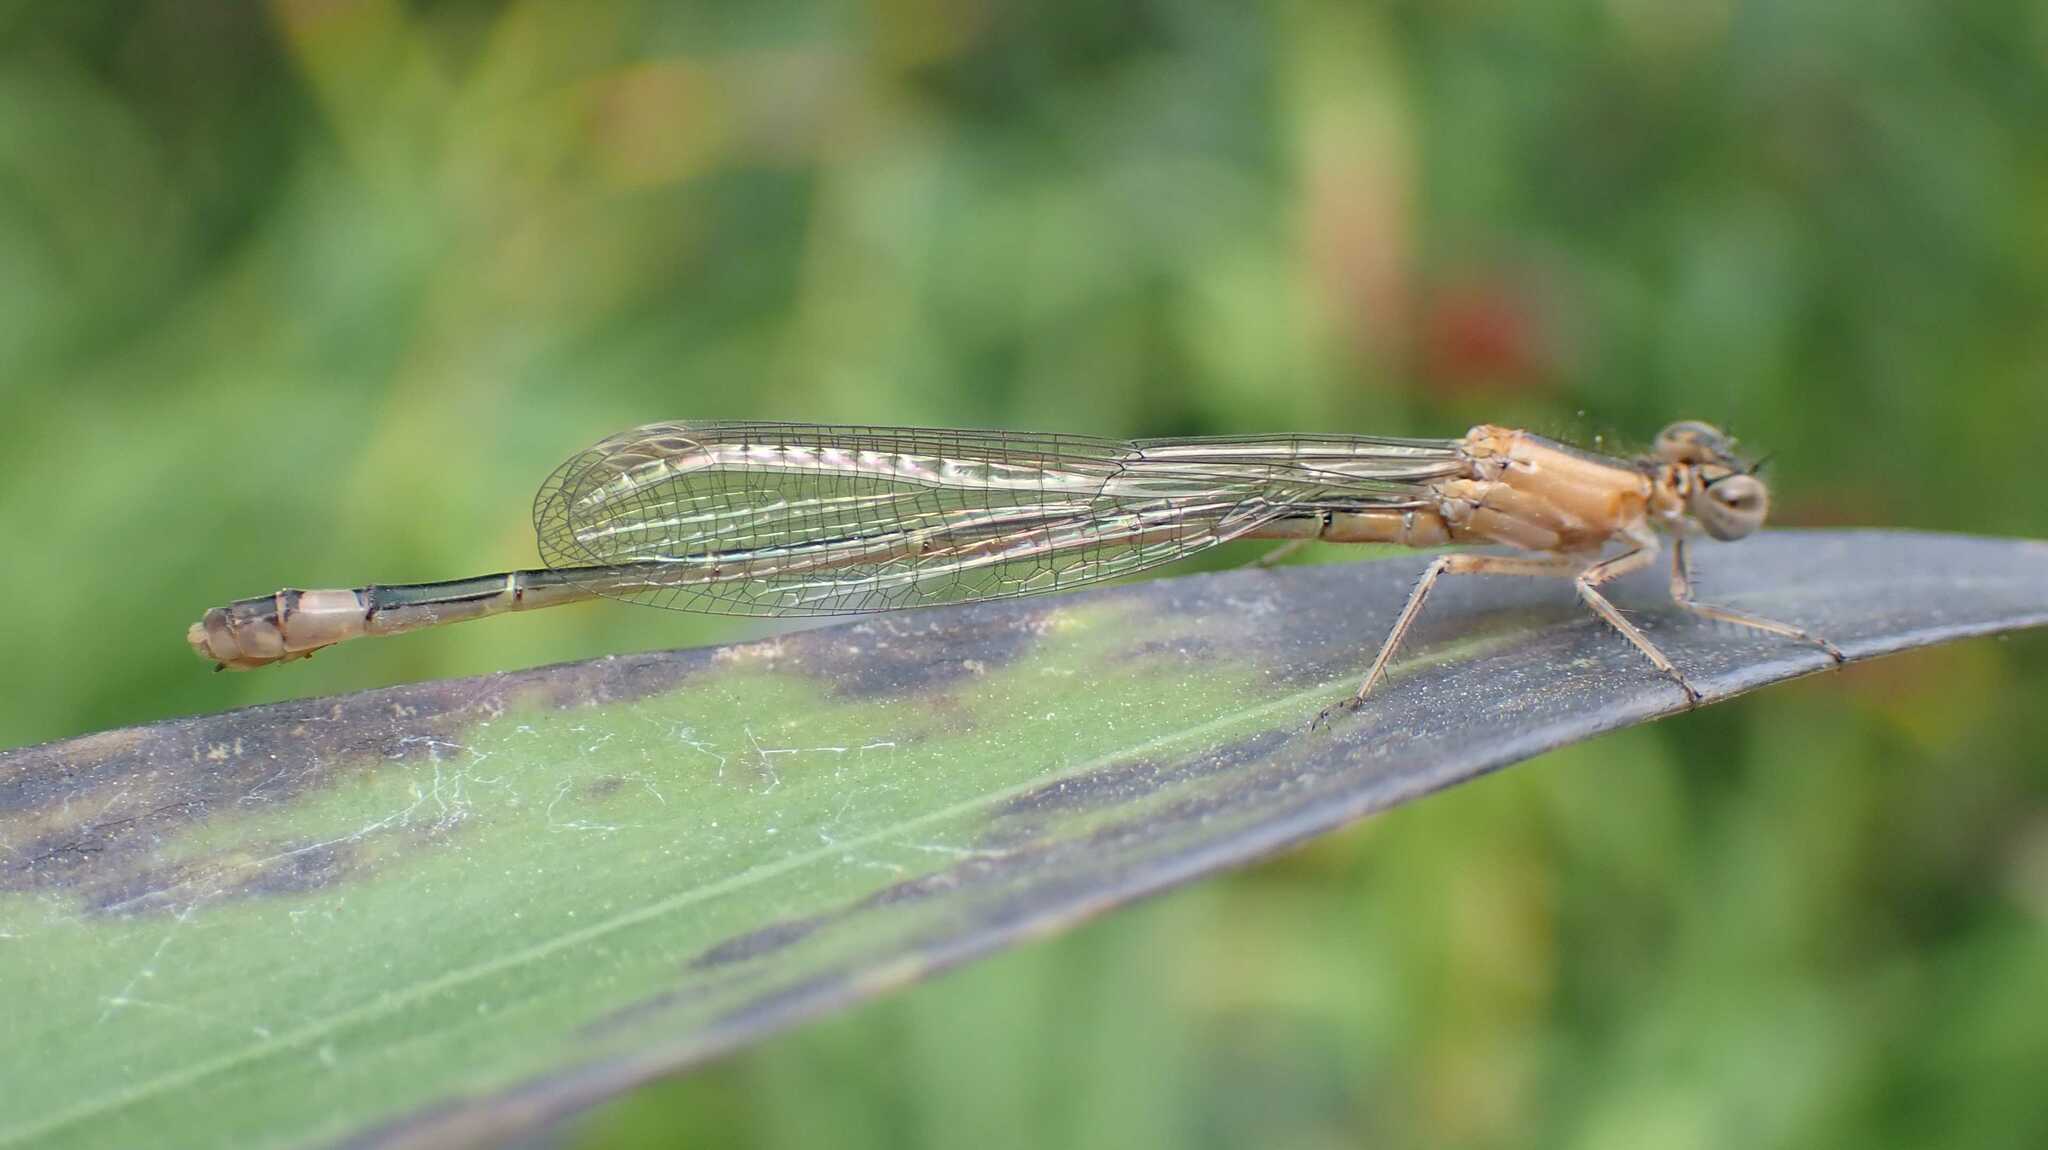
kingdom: Animalia
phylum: Arthropoda
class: Insecta
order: Odonata
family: Coenagrionidae
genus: Ischnura
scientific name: Ischnura elegans
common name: Blue-tailed damselfly
